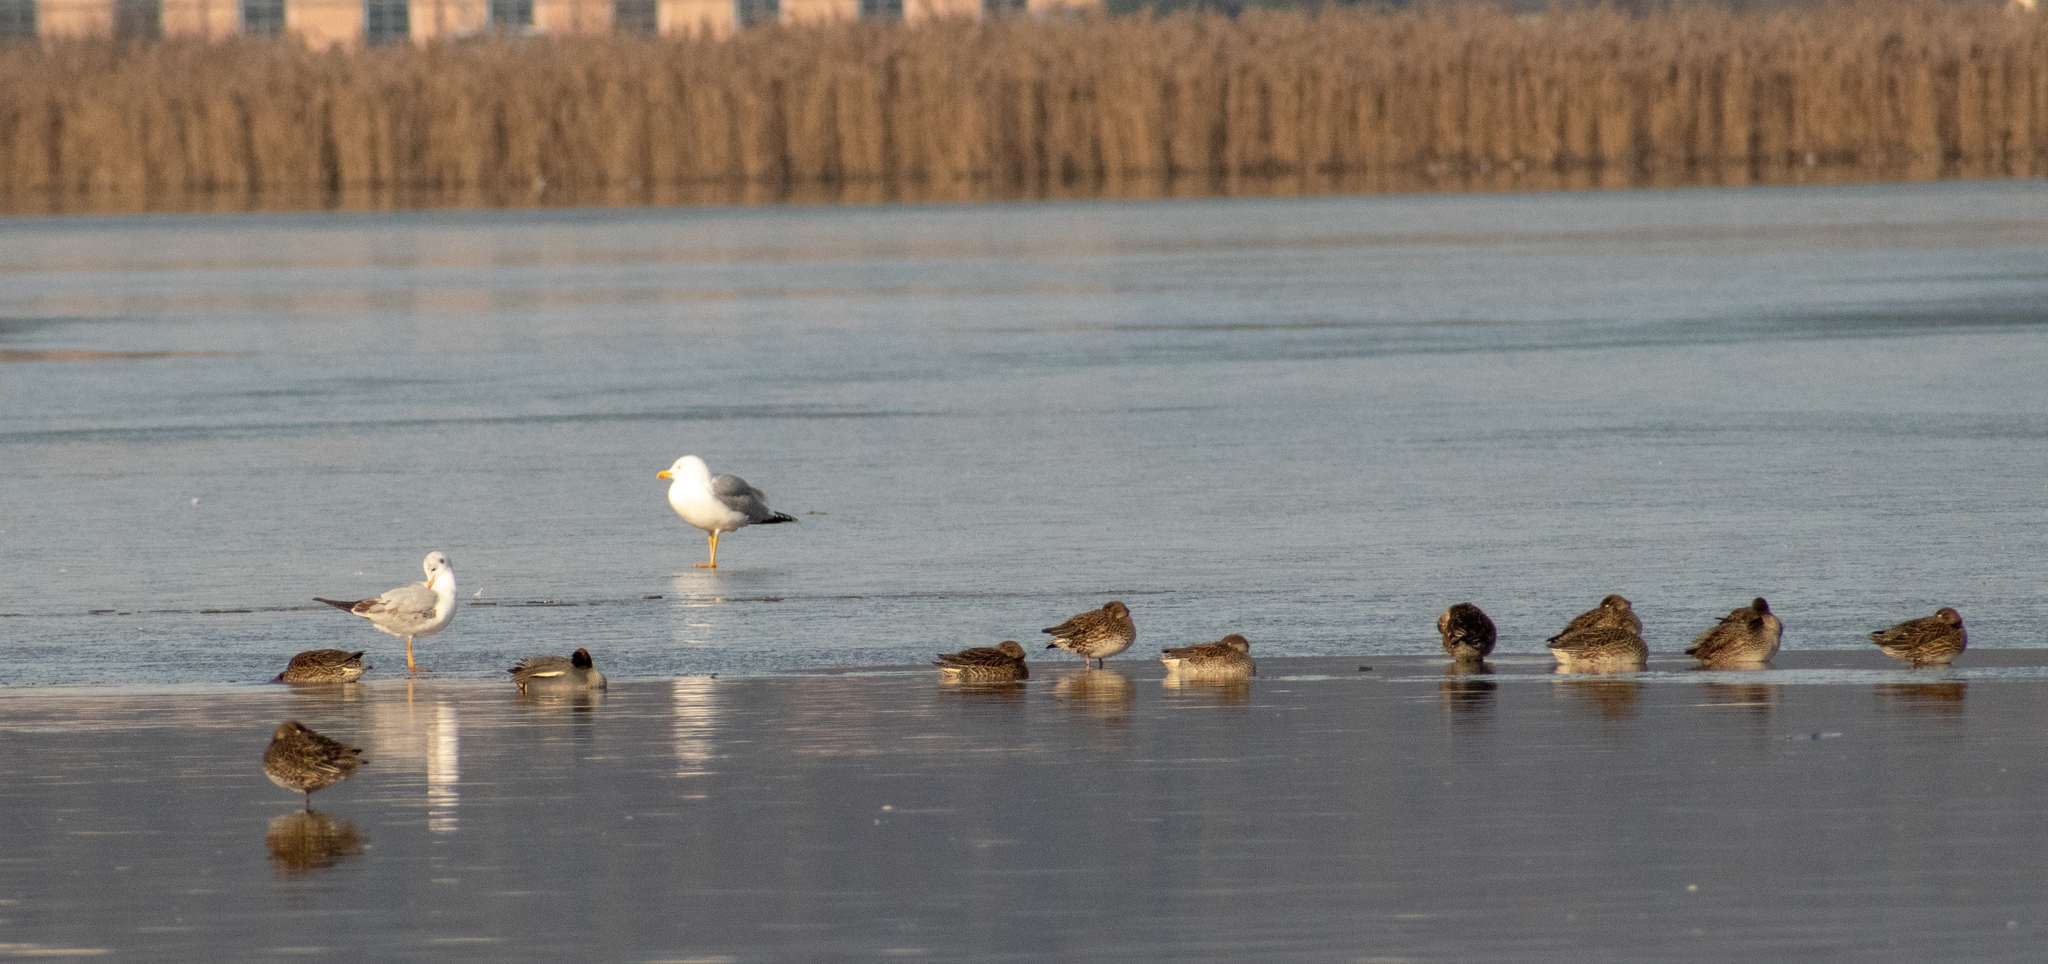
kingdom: Animalia
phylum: Chordata
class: Aves
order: Charadriiformes
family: Laridae
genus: Larus
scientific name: Larus fuscus
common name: Lesser black-backed gull
